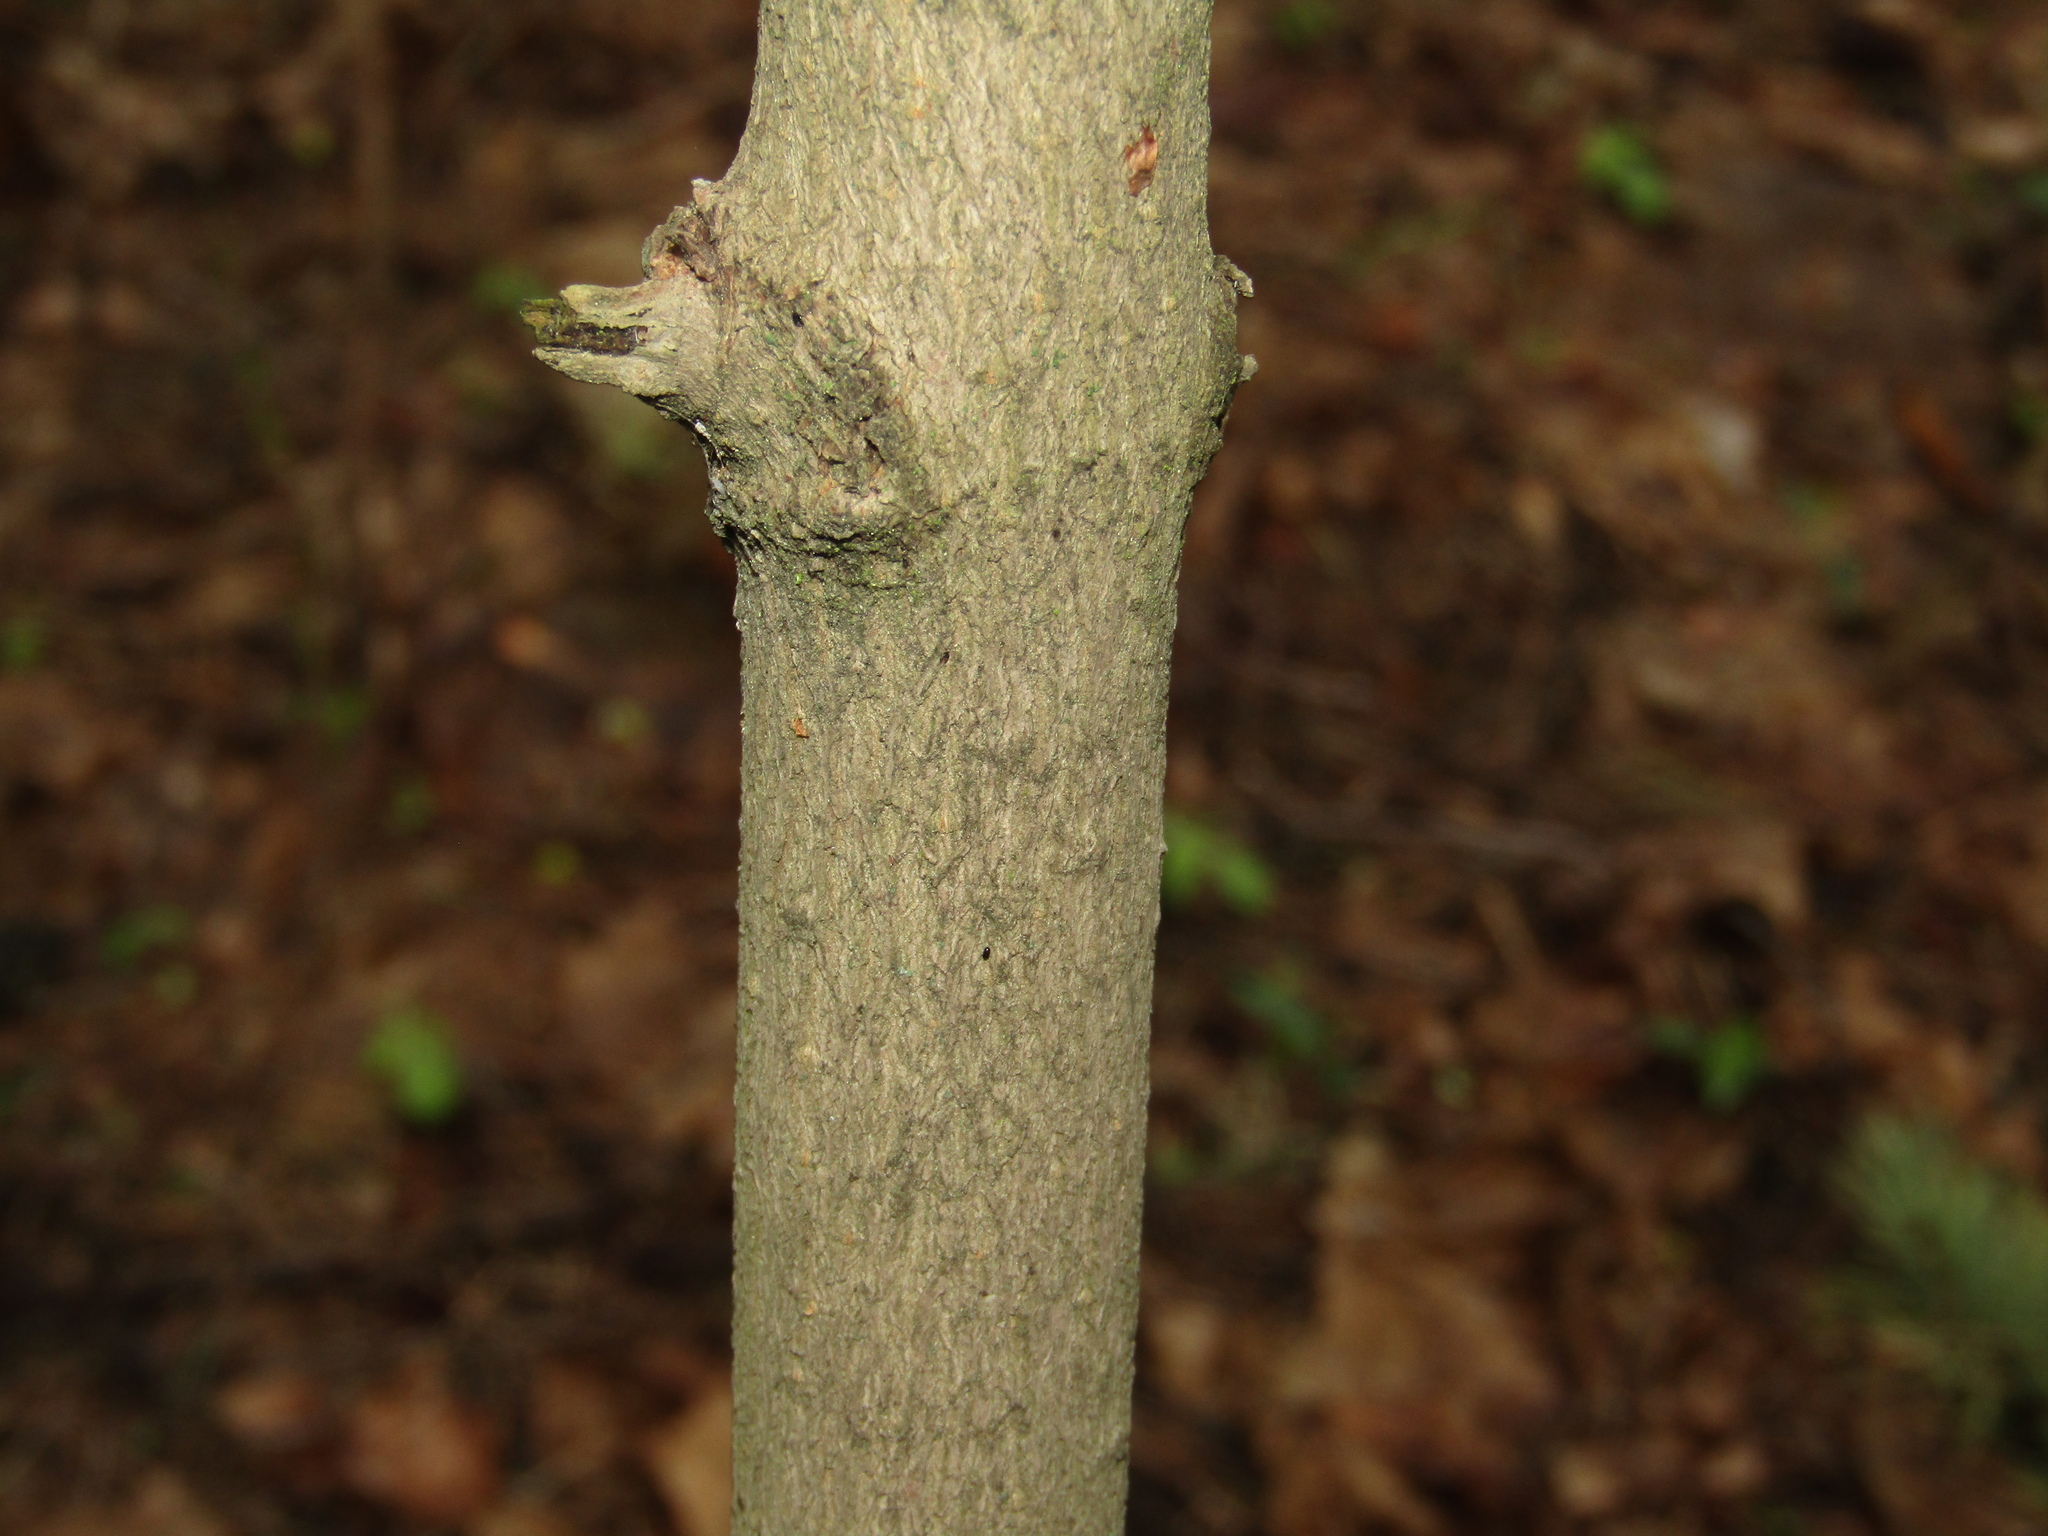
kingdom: Plantae
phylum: Tracheophyta
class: Magnoliopsida
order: Sapindales
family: Sapindaceae
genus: Acer
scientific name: Acer platanoides
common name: Norway maple
